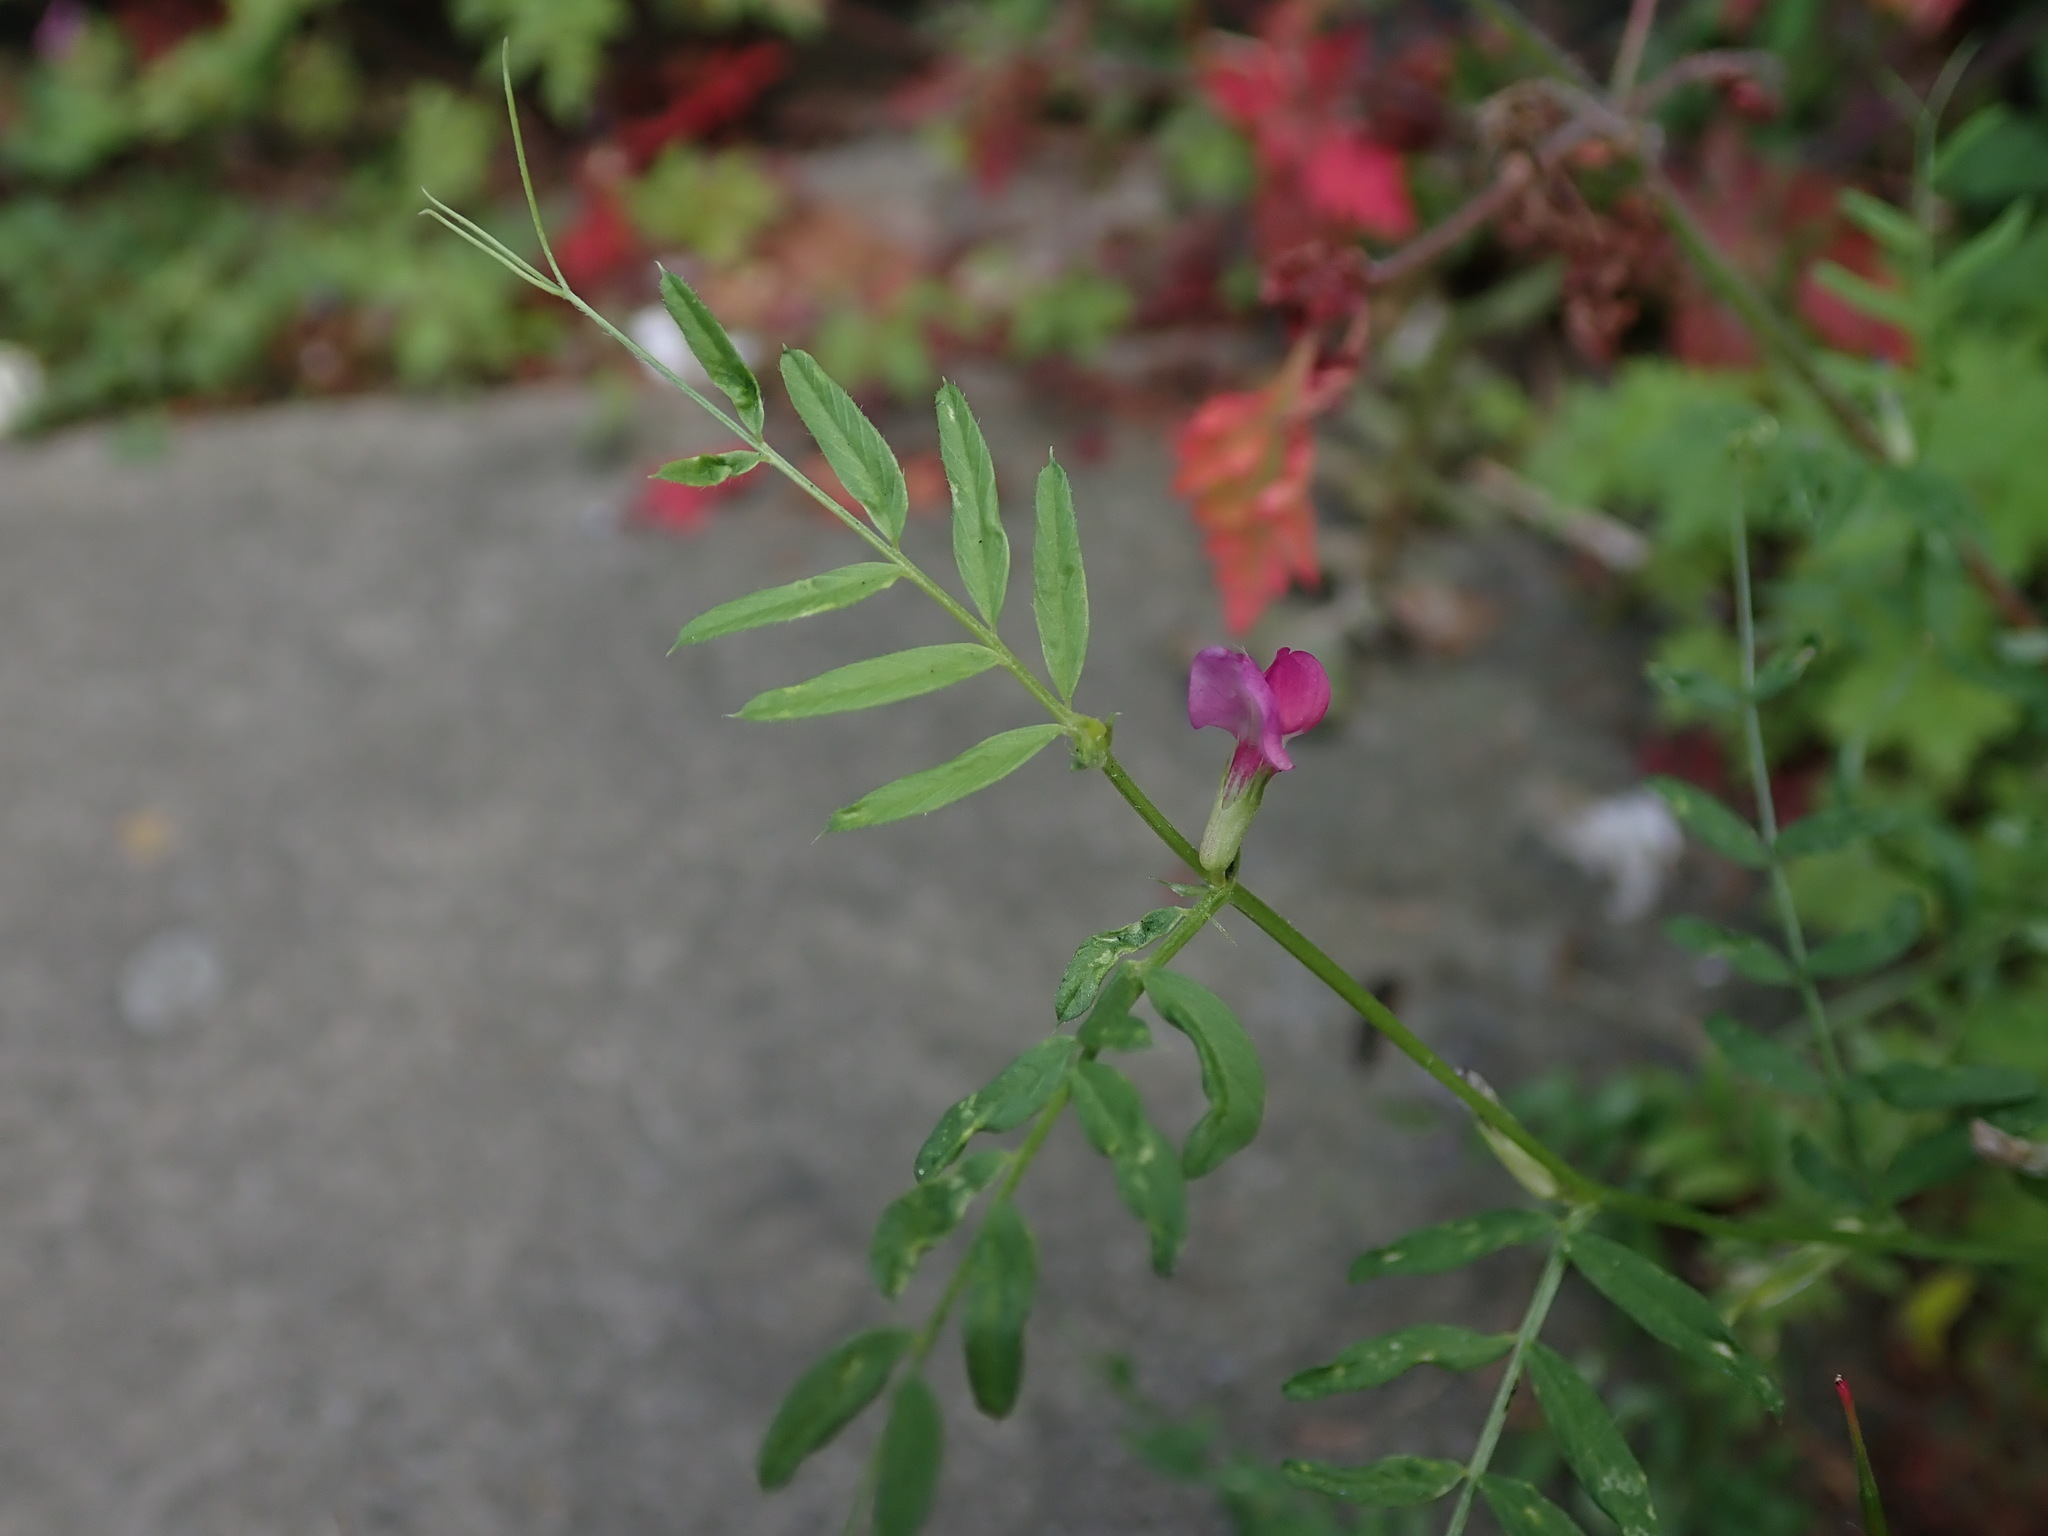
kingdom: Plantae
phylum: Tracheophyta
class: Magnoliopsida
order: Fabales
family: Fabaceae
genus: Vicia
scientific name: Vicia sativa
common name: Garden vetch
